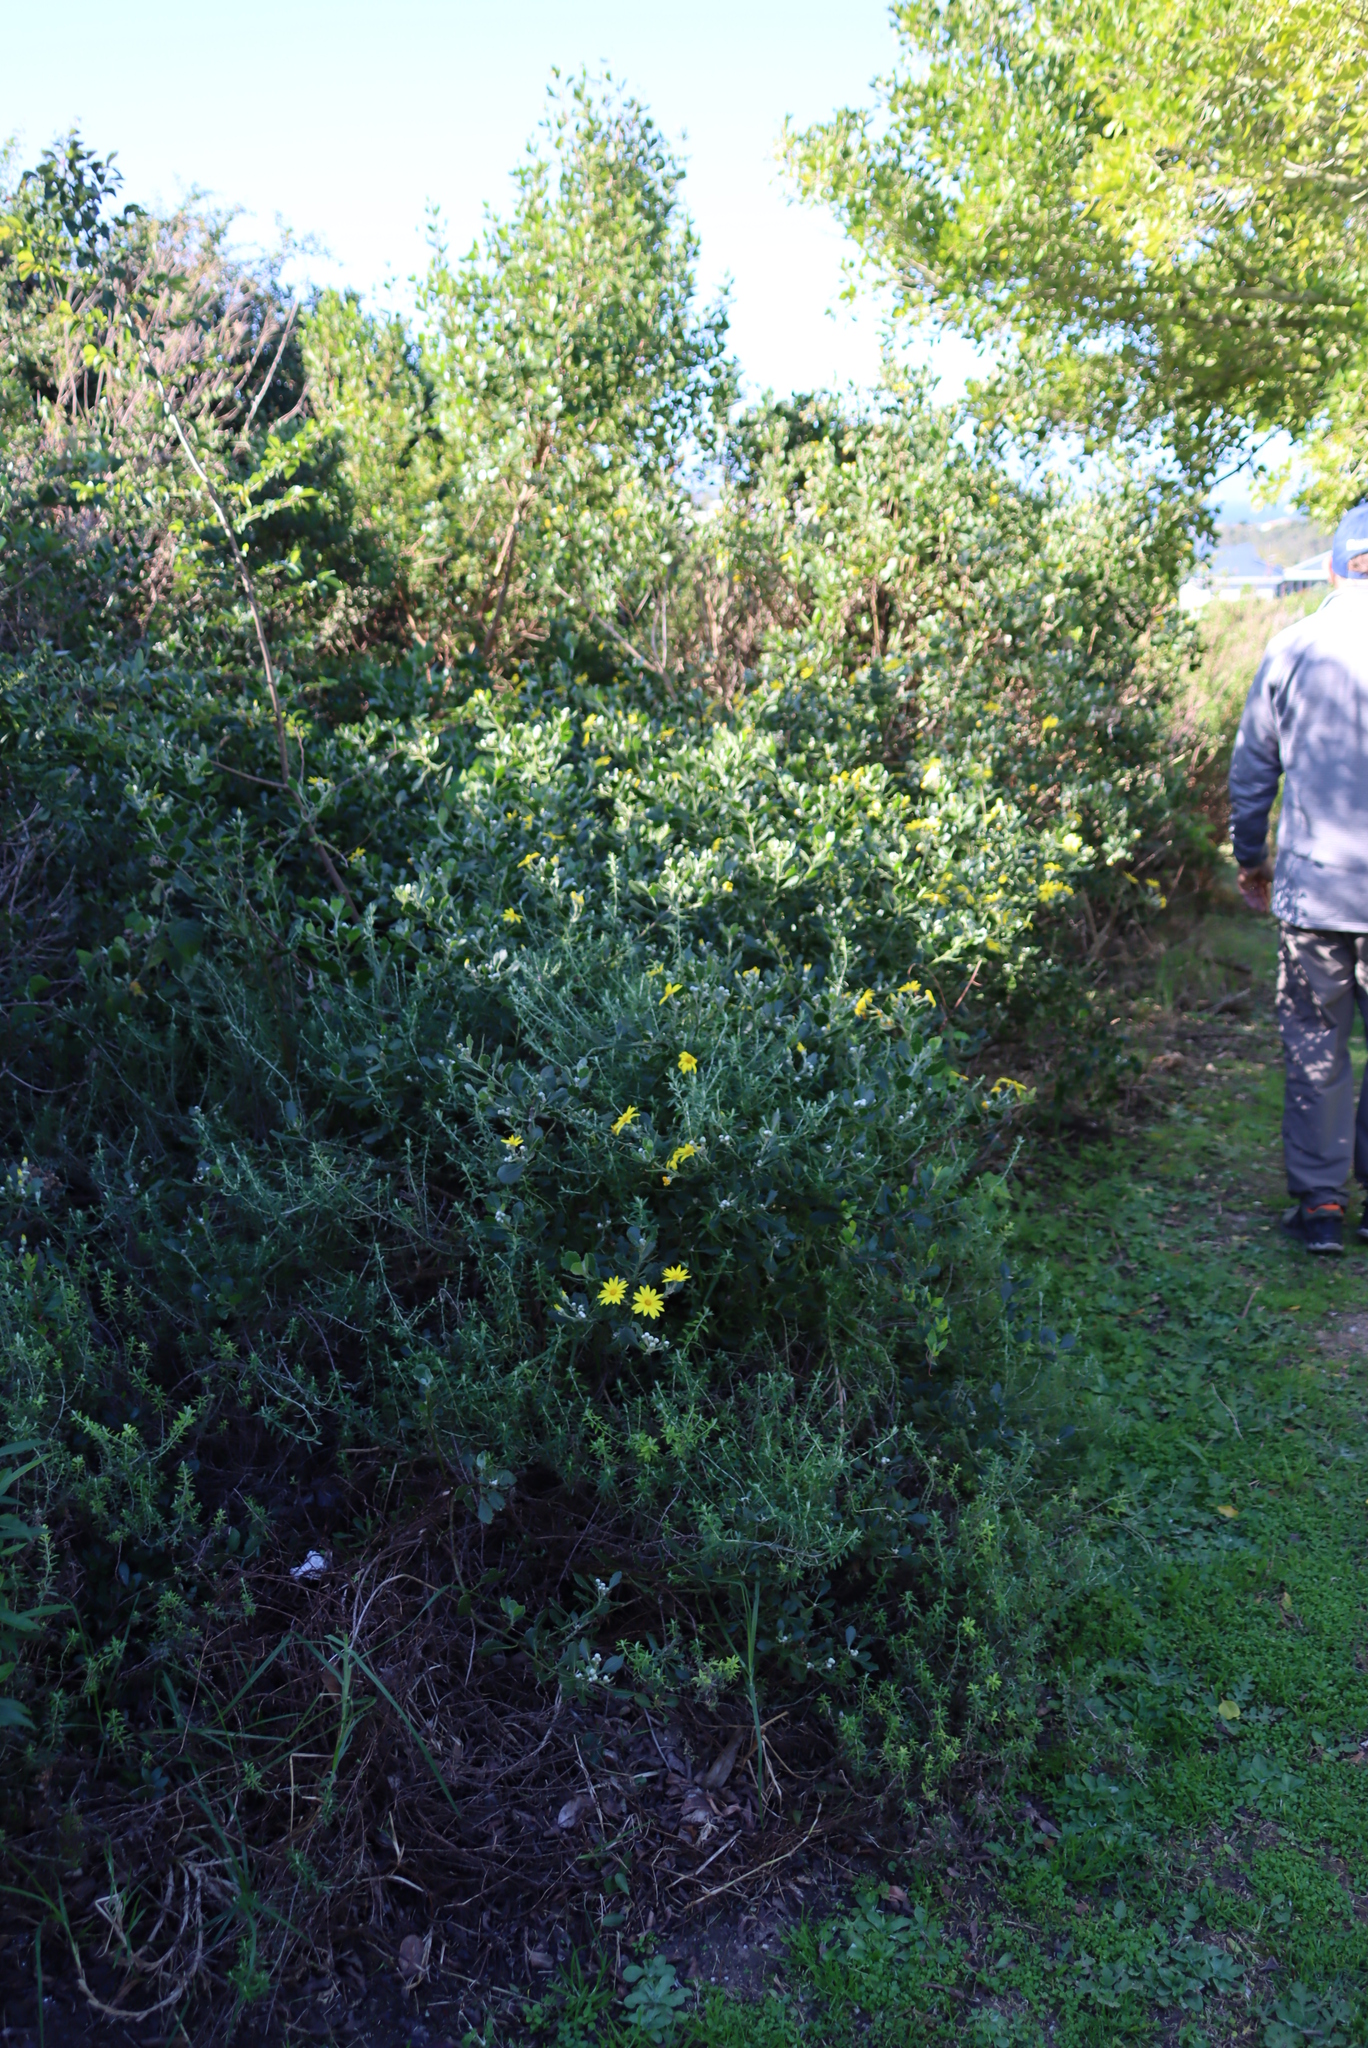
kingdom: Plantae
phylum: Tracheophyta
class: Magnoliopsida
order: Asterales
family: Asteraceae
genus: Osteospermum
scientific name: Osteospermum moniliferum
